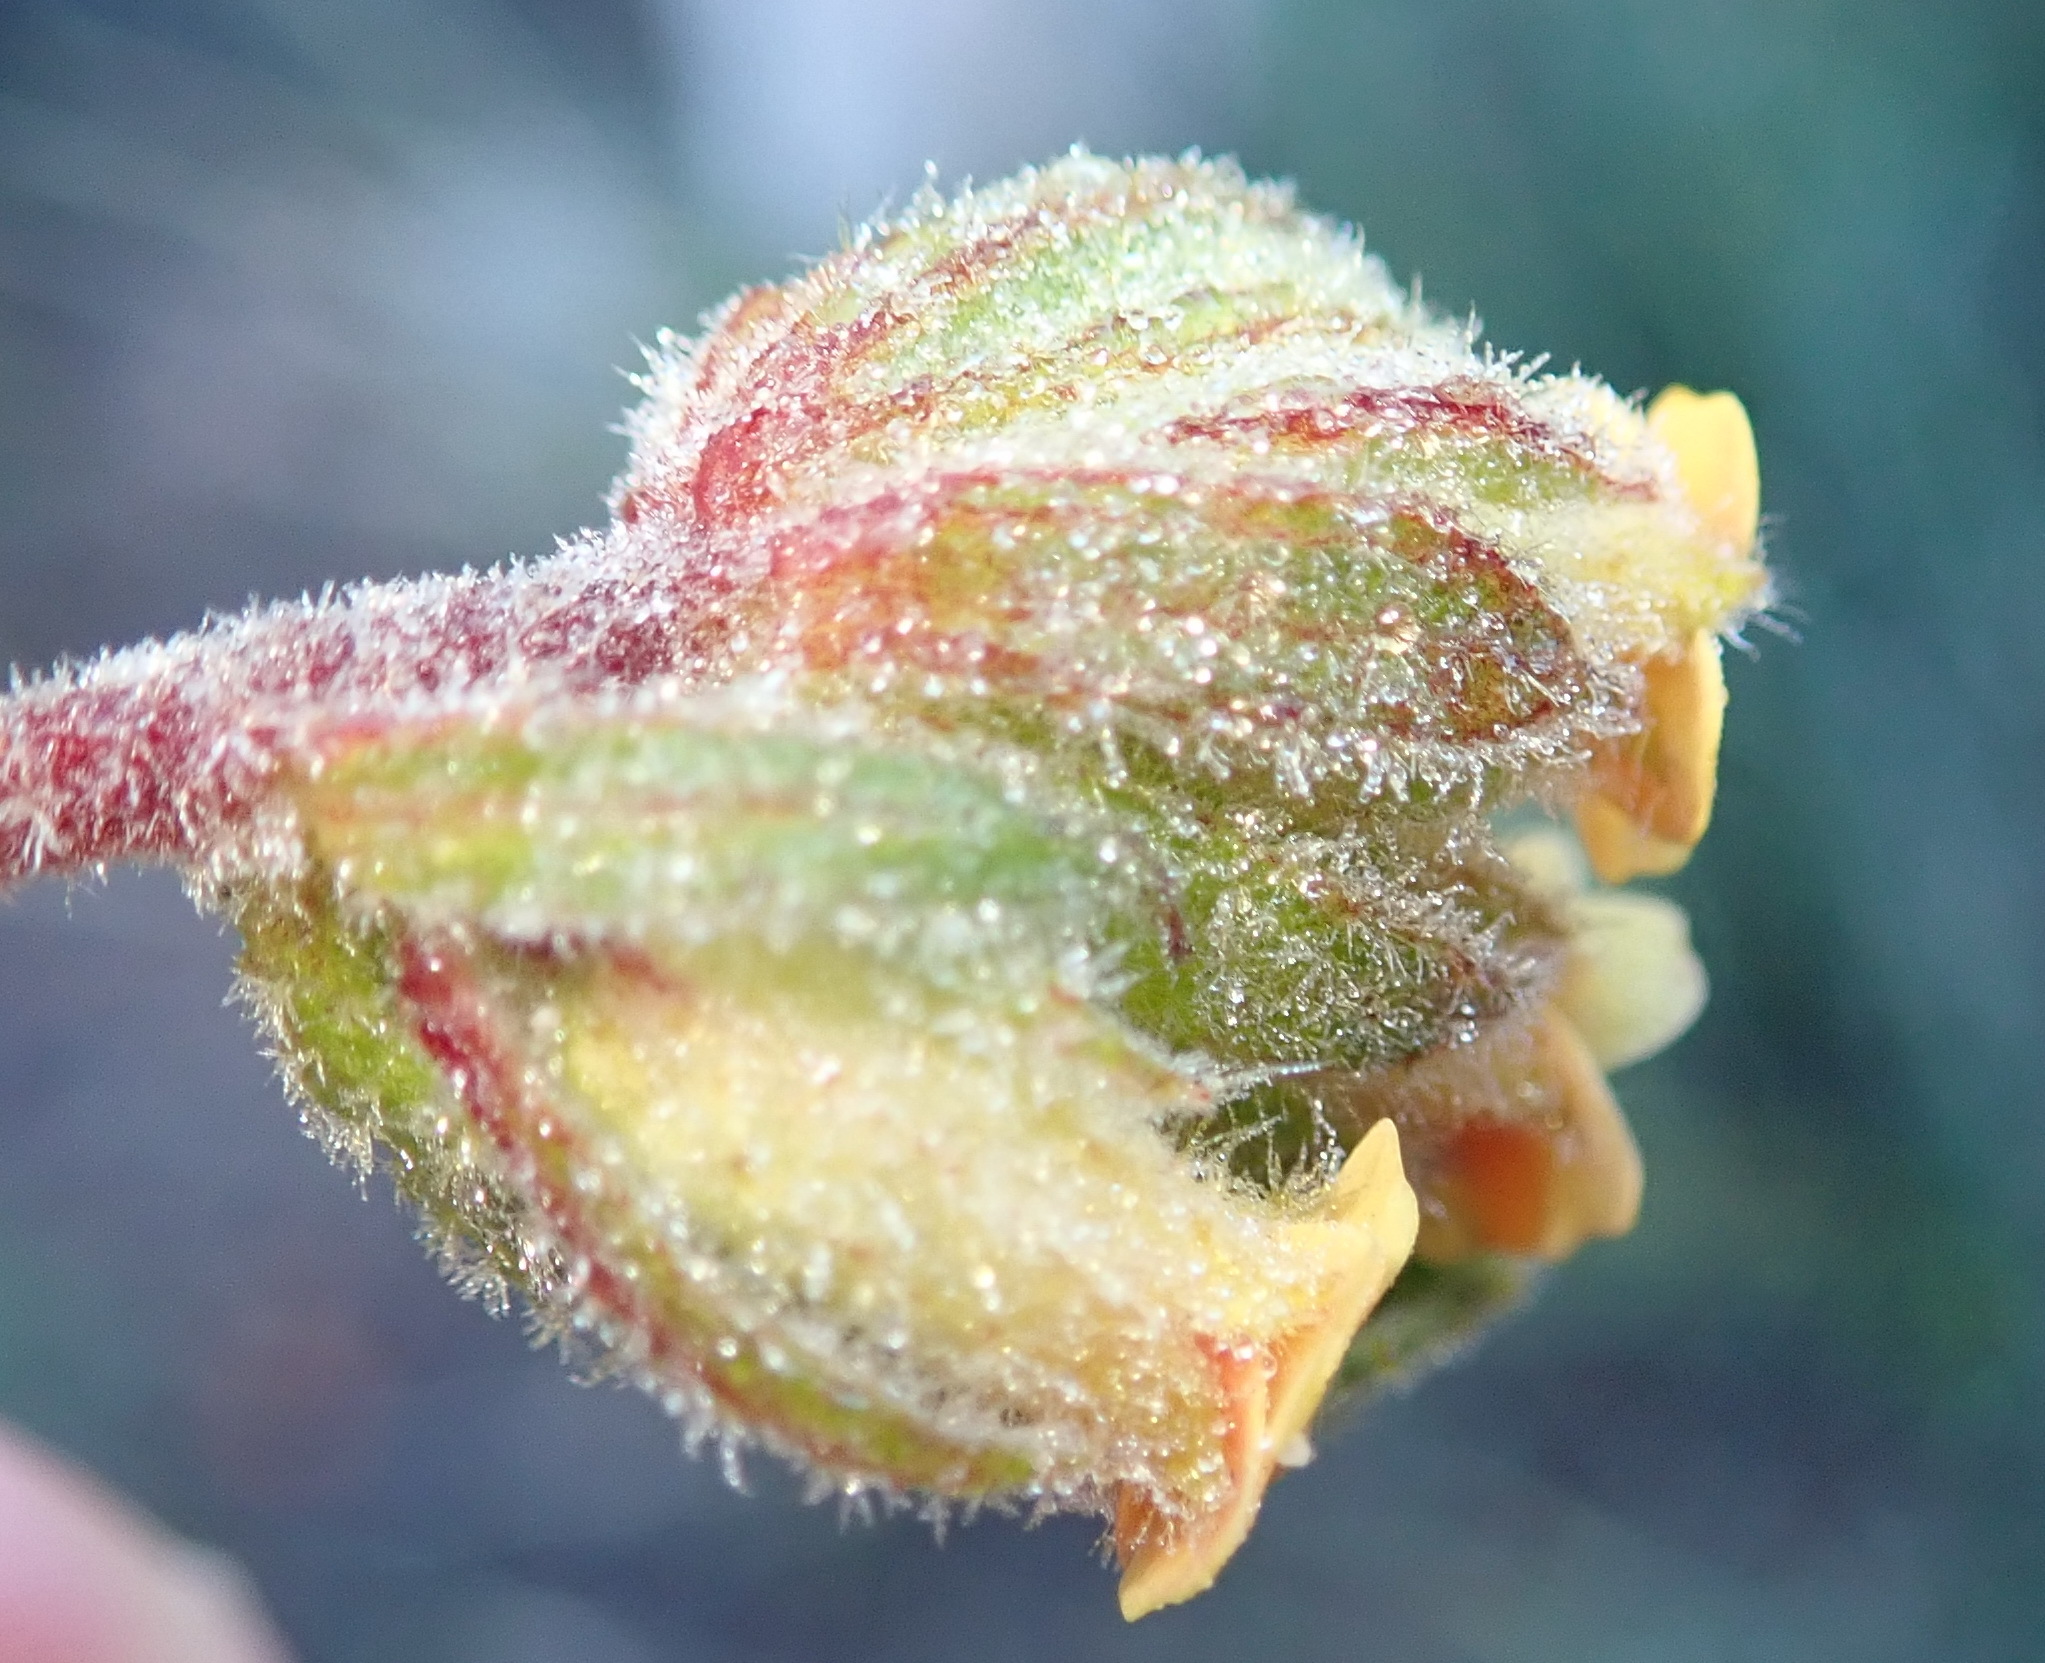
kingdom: Plantae
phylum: Tracheophyta
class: Magnoliopsida
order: Malvales
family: Malvaceae
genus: Hermannia
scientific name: Hermannia salviifolia
